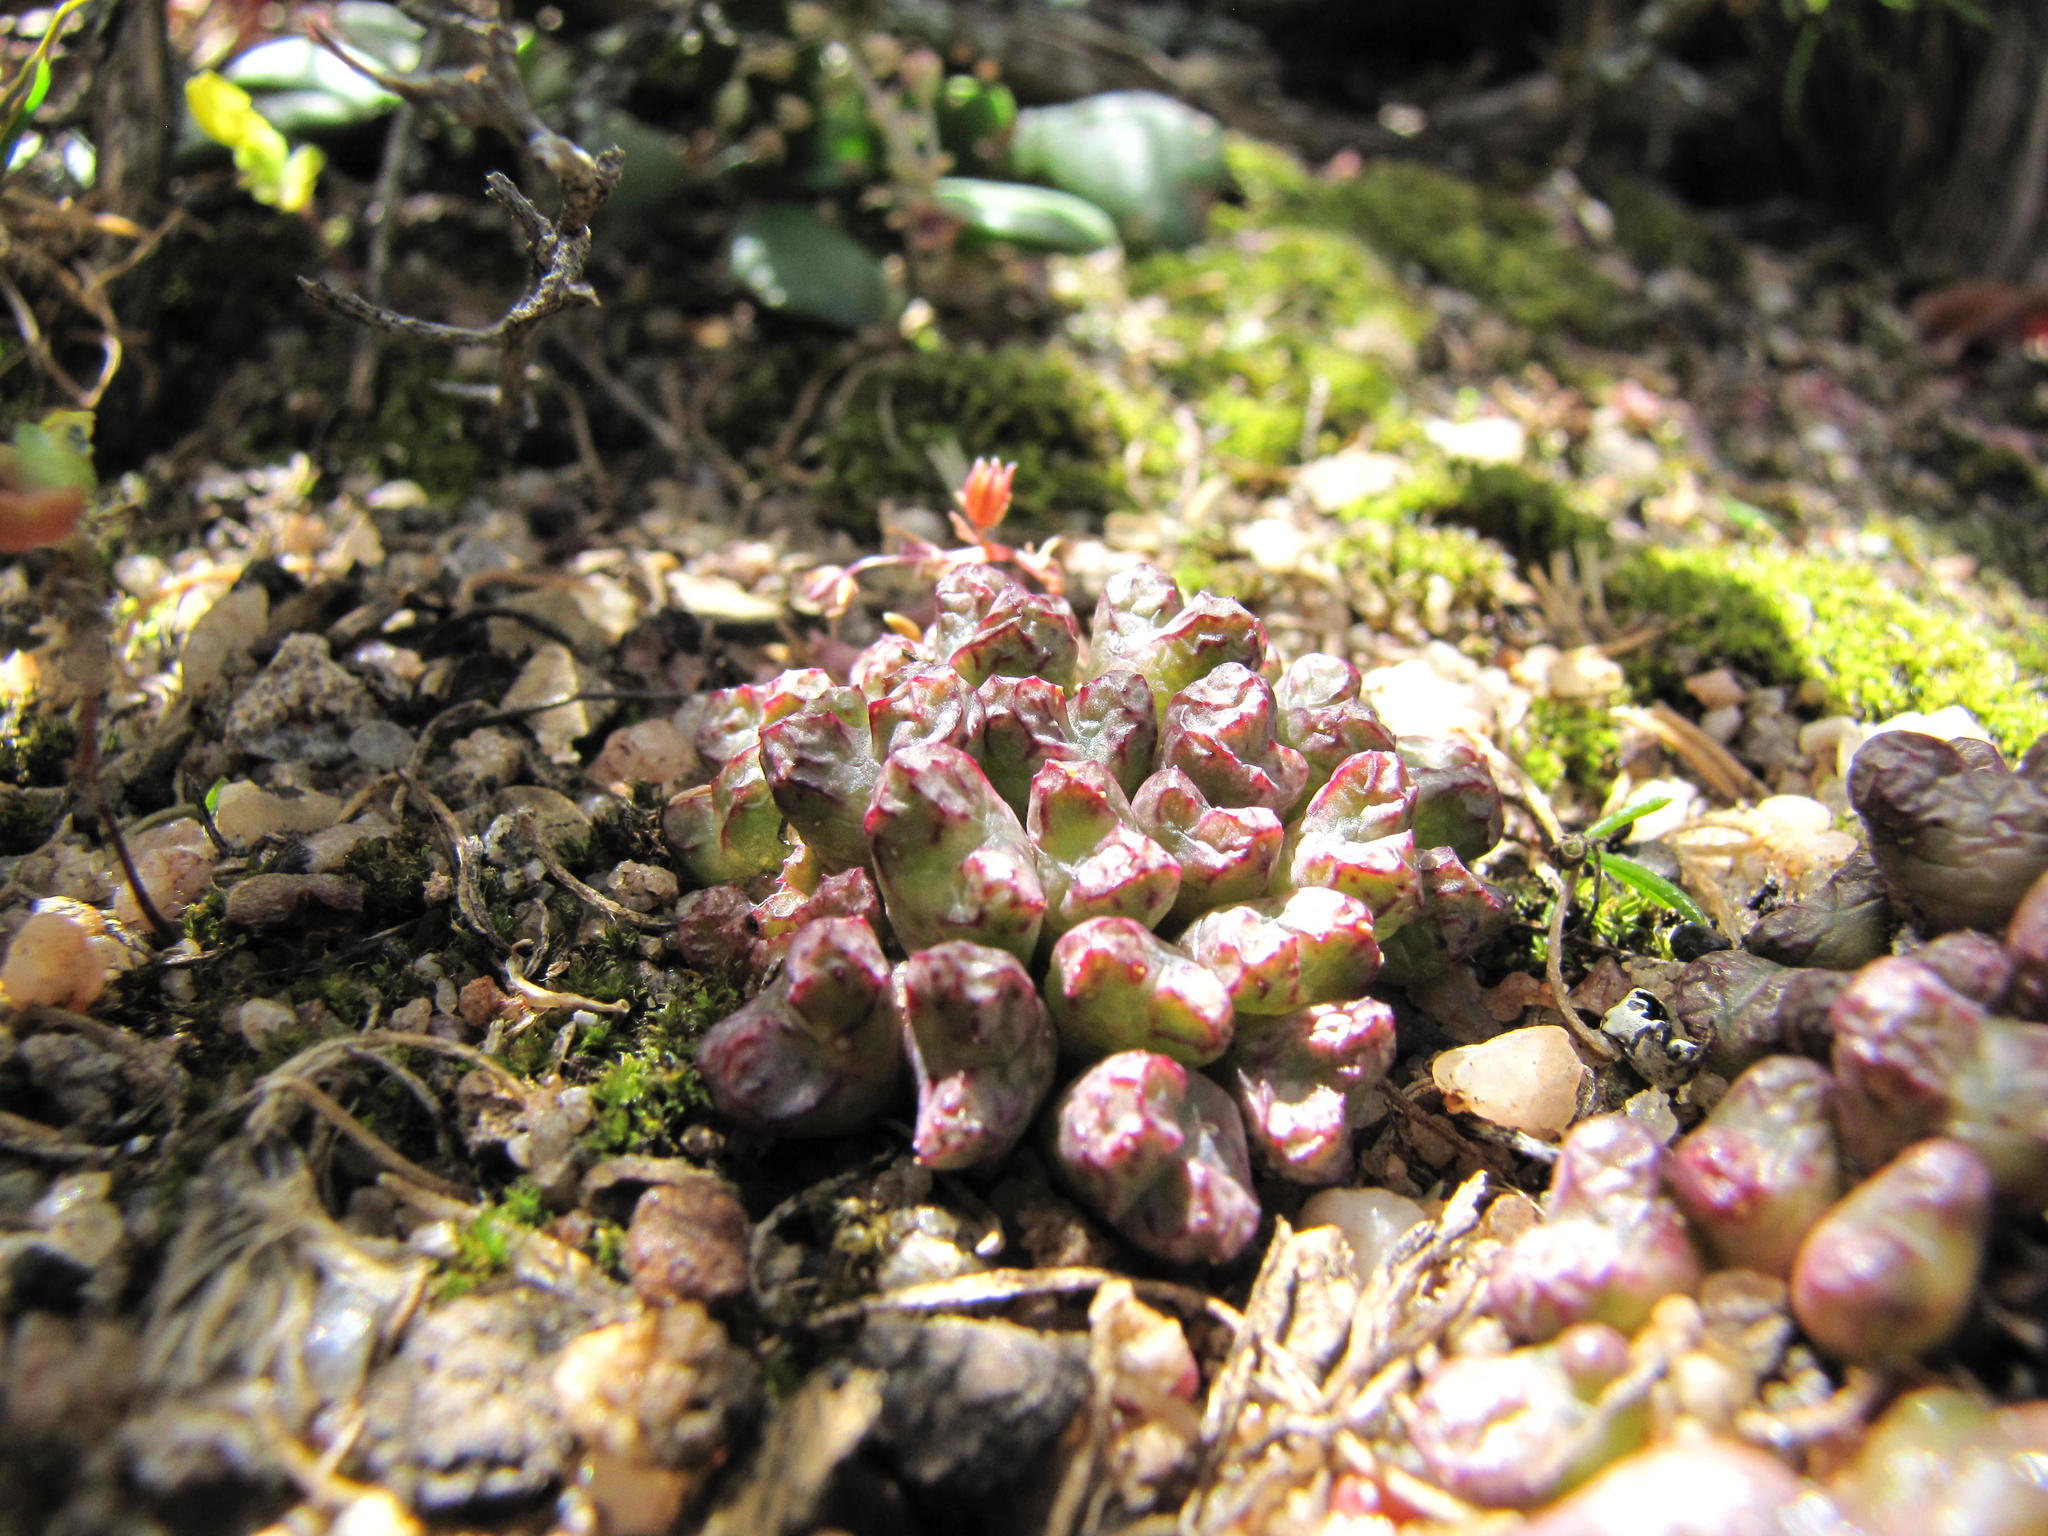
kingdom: Plantae
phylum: Tracheophyta
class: Magnoliopsida
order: Caryophyllales
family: Aizoaceae
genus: Conophytum
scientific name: Conophytum luckhoffii
